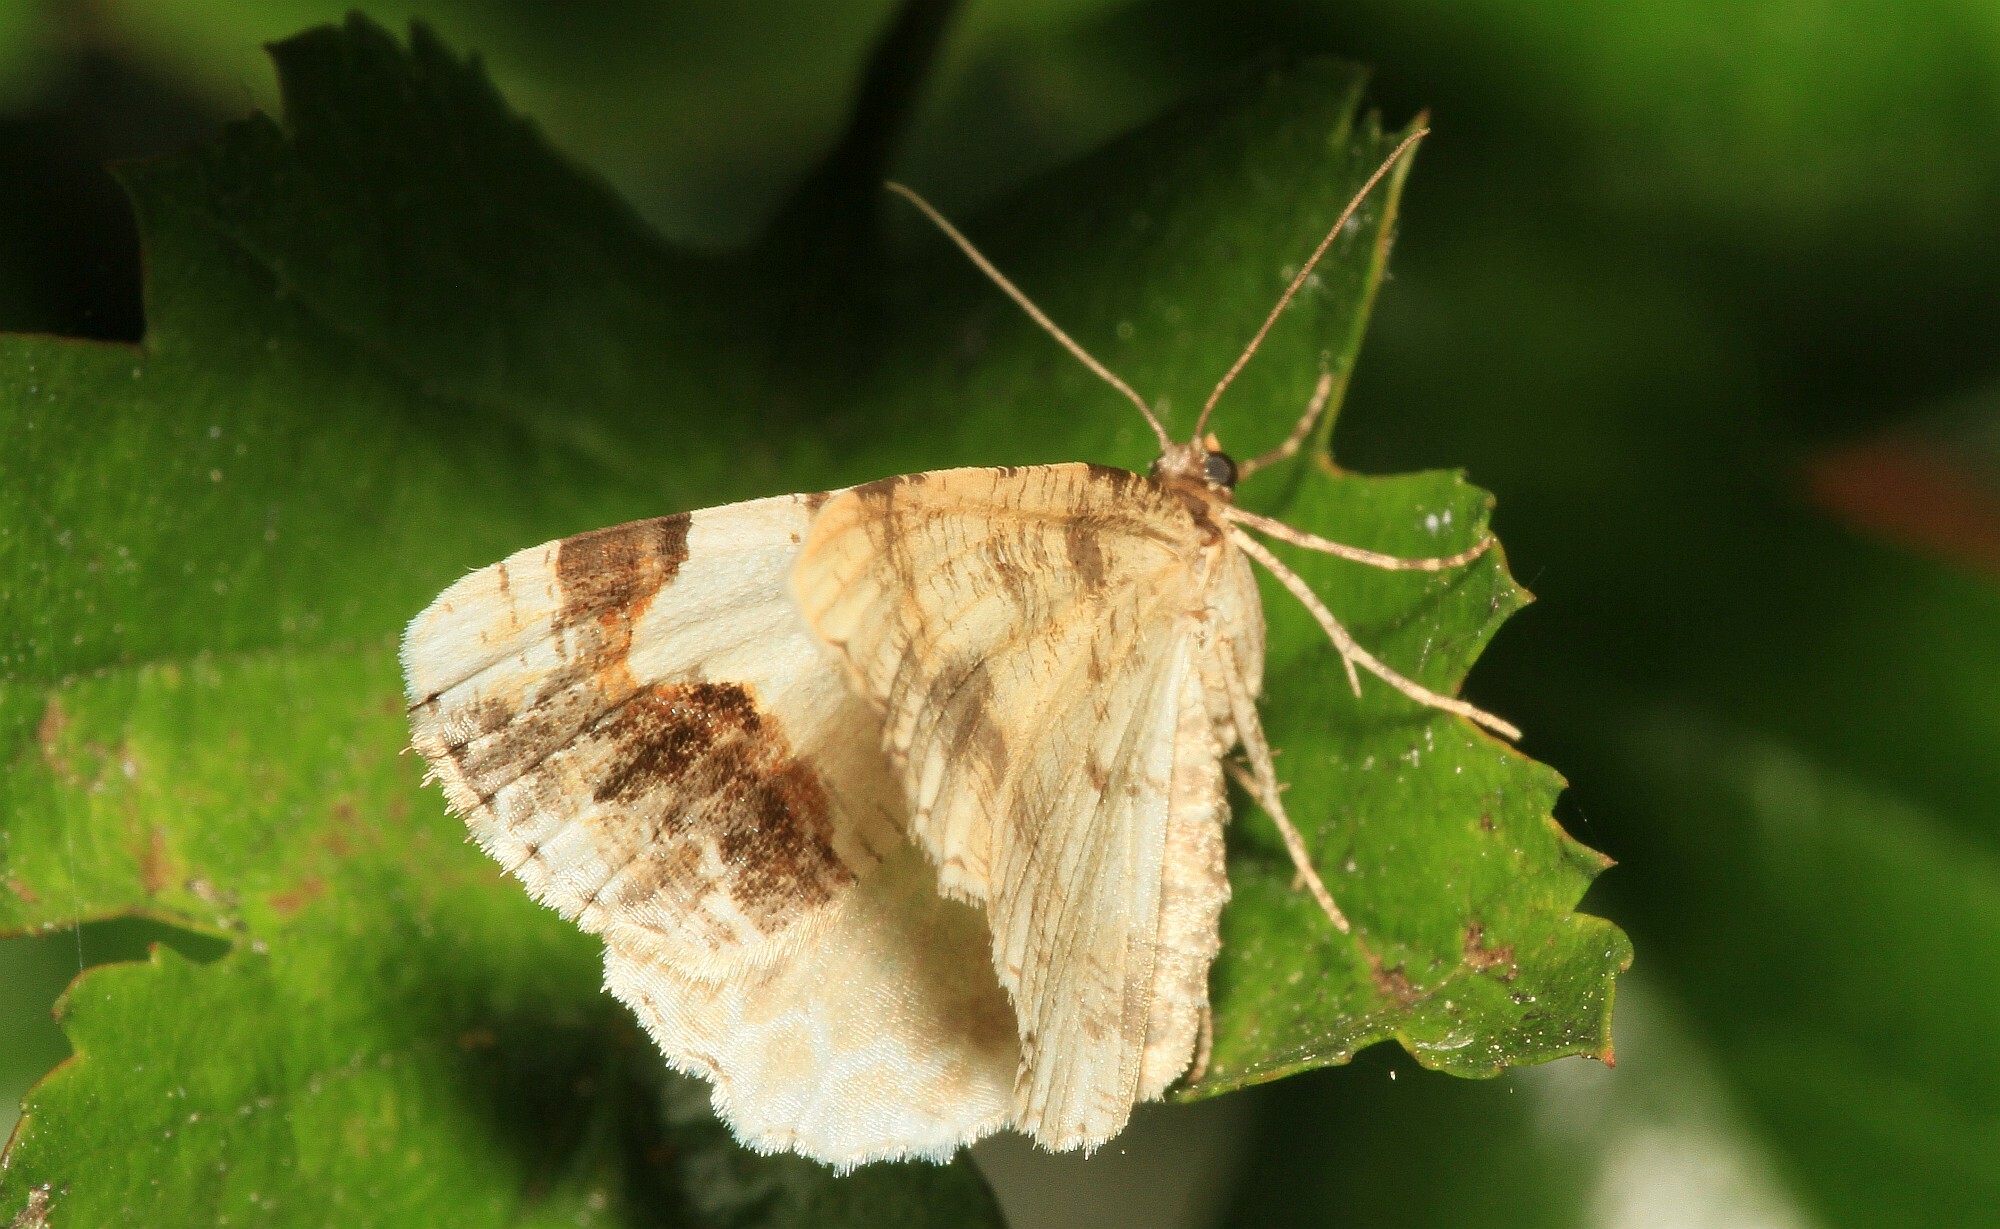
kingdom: Animalia
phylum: Arthropoda
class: Insecta
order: Lepidoptera
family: Geometridae
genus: Ligdia
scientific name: Ligdia adustata
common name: Scorched carpet
